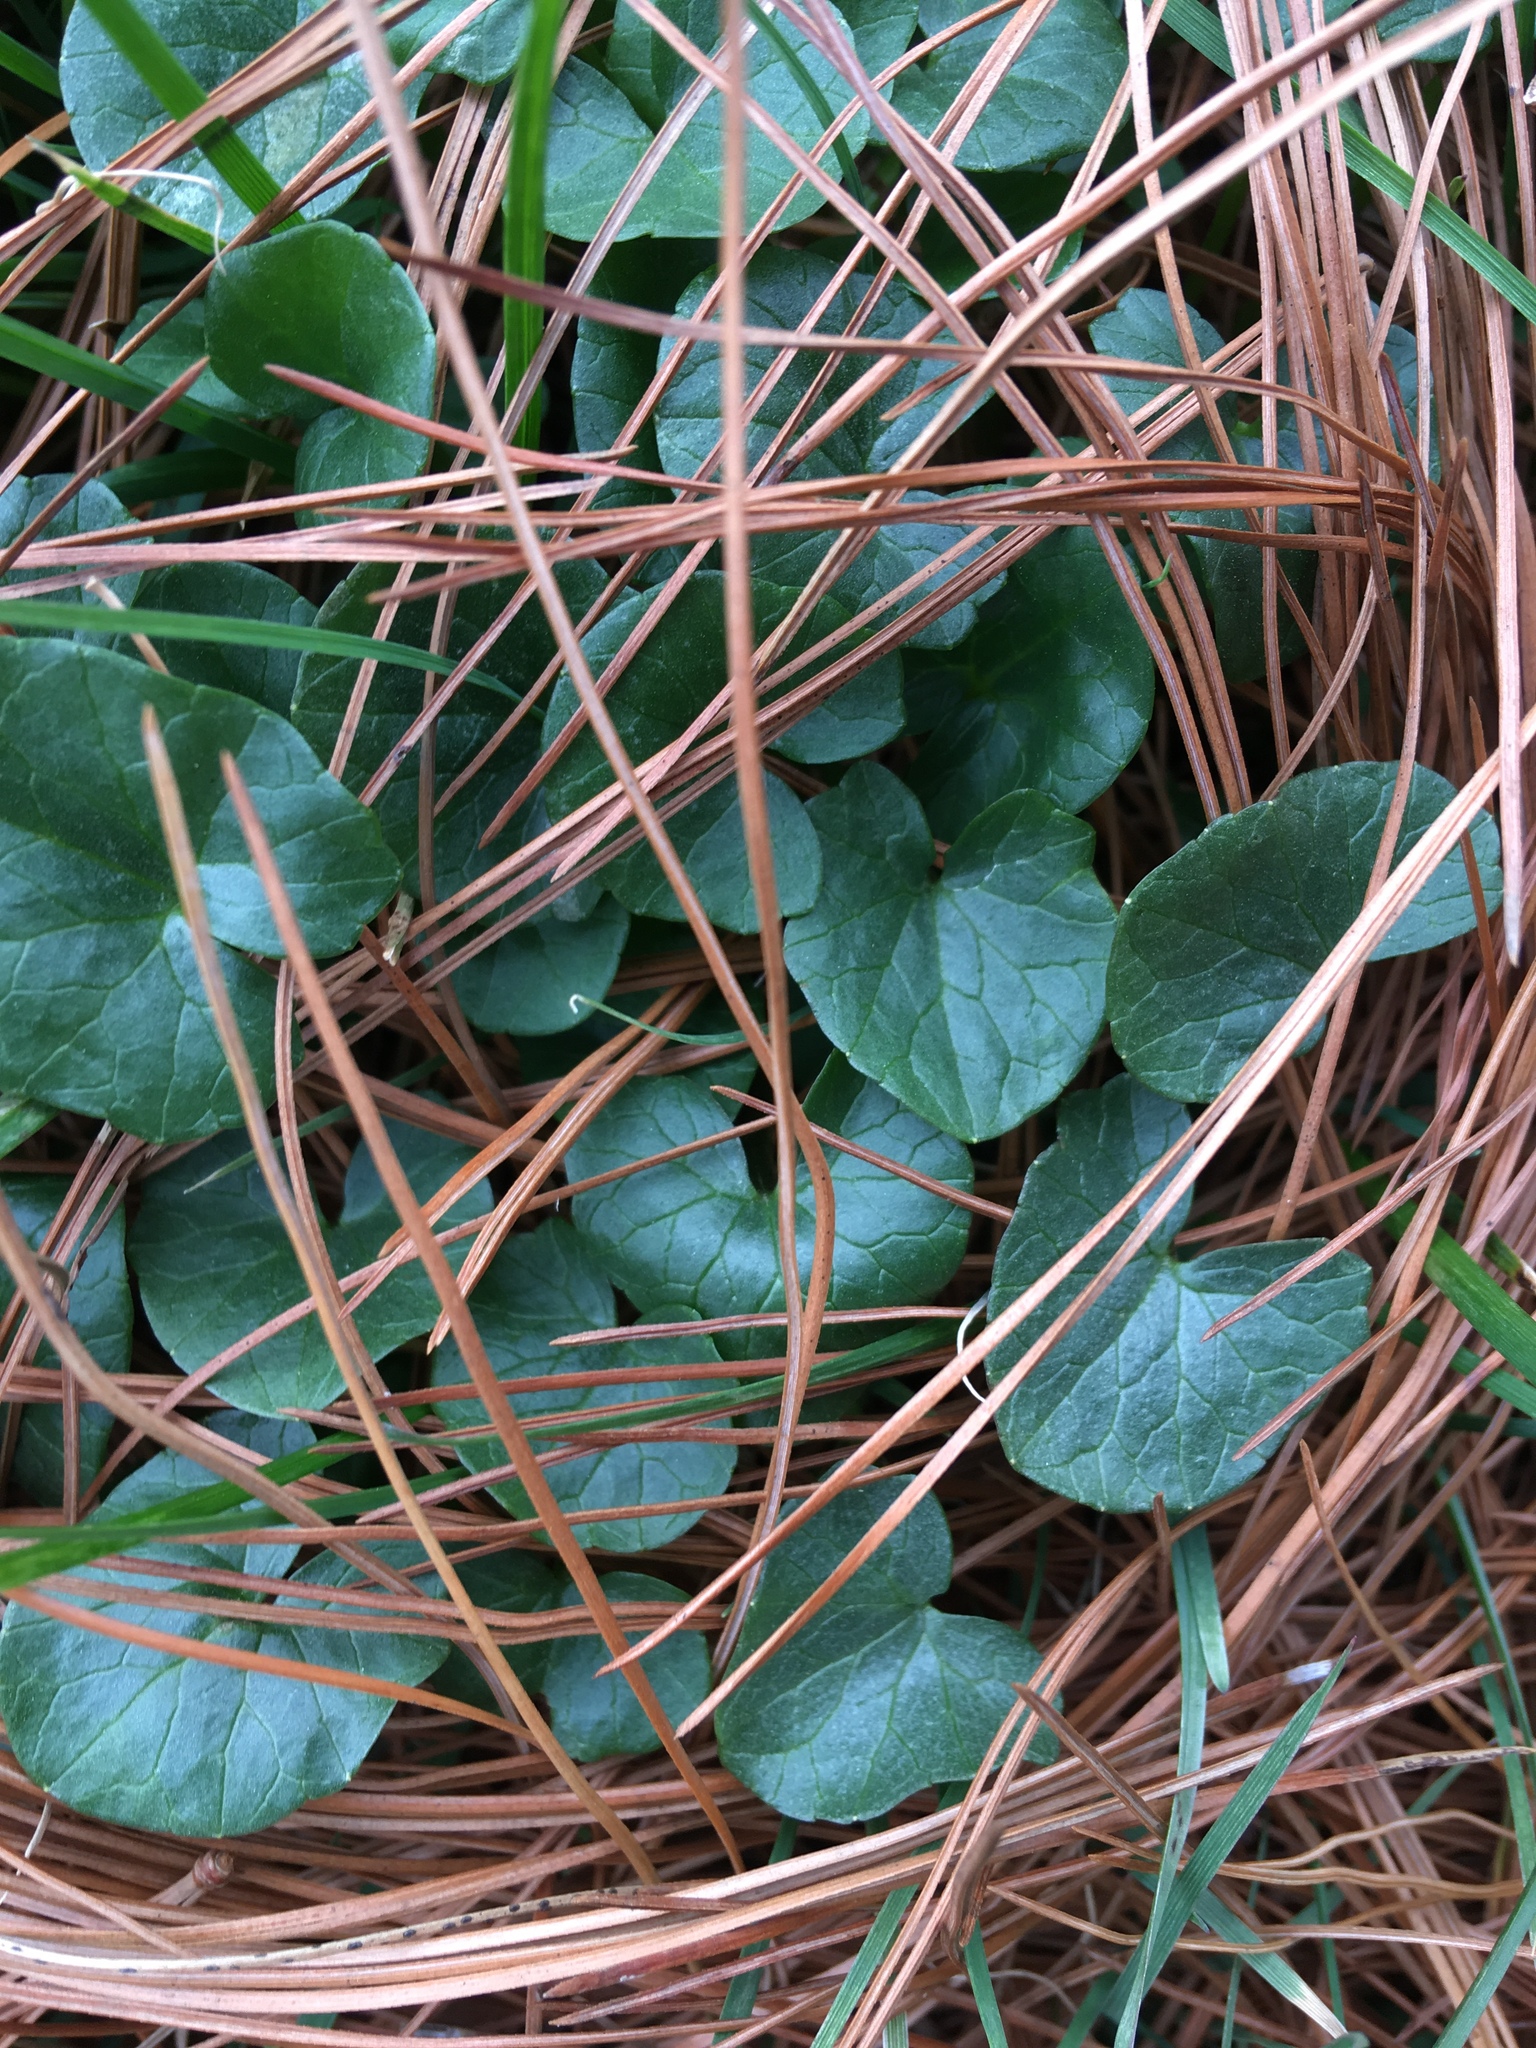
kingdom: Plantae
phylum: Tracheophyta
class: Magnoliopsida
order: Ranunculales
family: Ranunculaceae
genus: Ficaria
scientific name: Ficaria verna
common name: Lesser celandine
